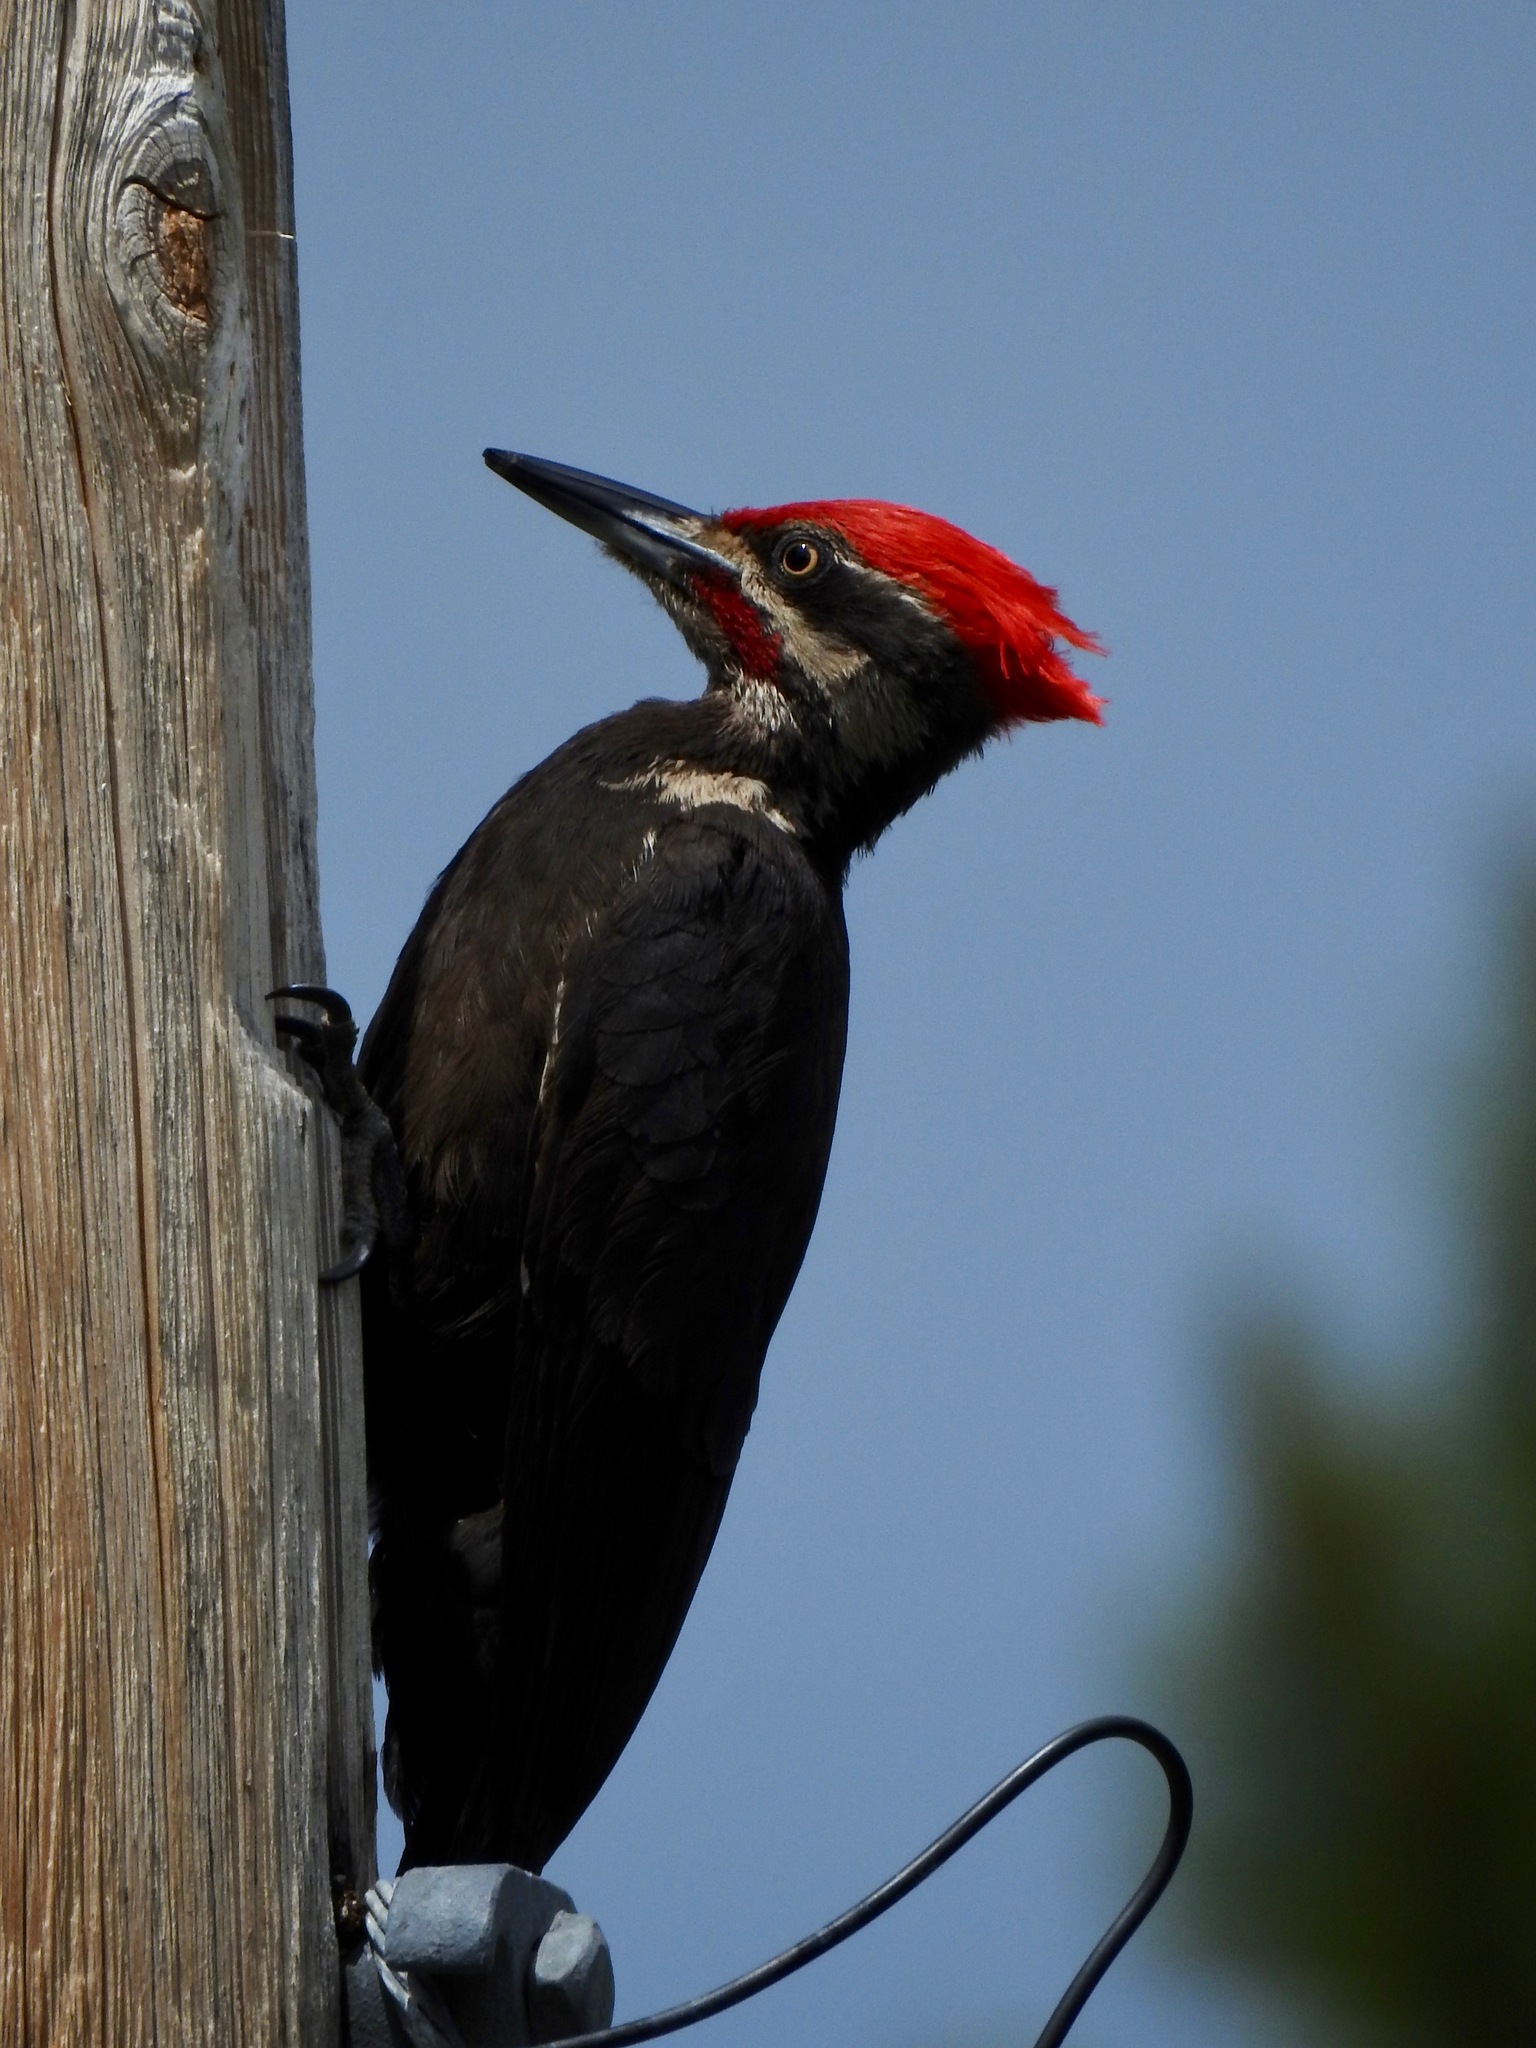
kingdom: Animalia
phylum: Chordata
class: Aves
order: Piciformes
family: Picidae
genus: Dryocopus
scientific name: Dryocopus pileatus
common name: Pileated woodpecker
